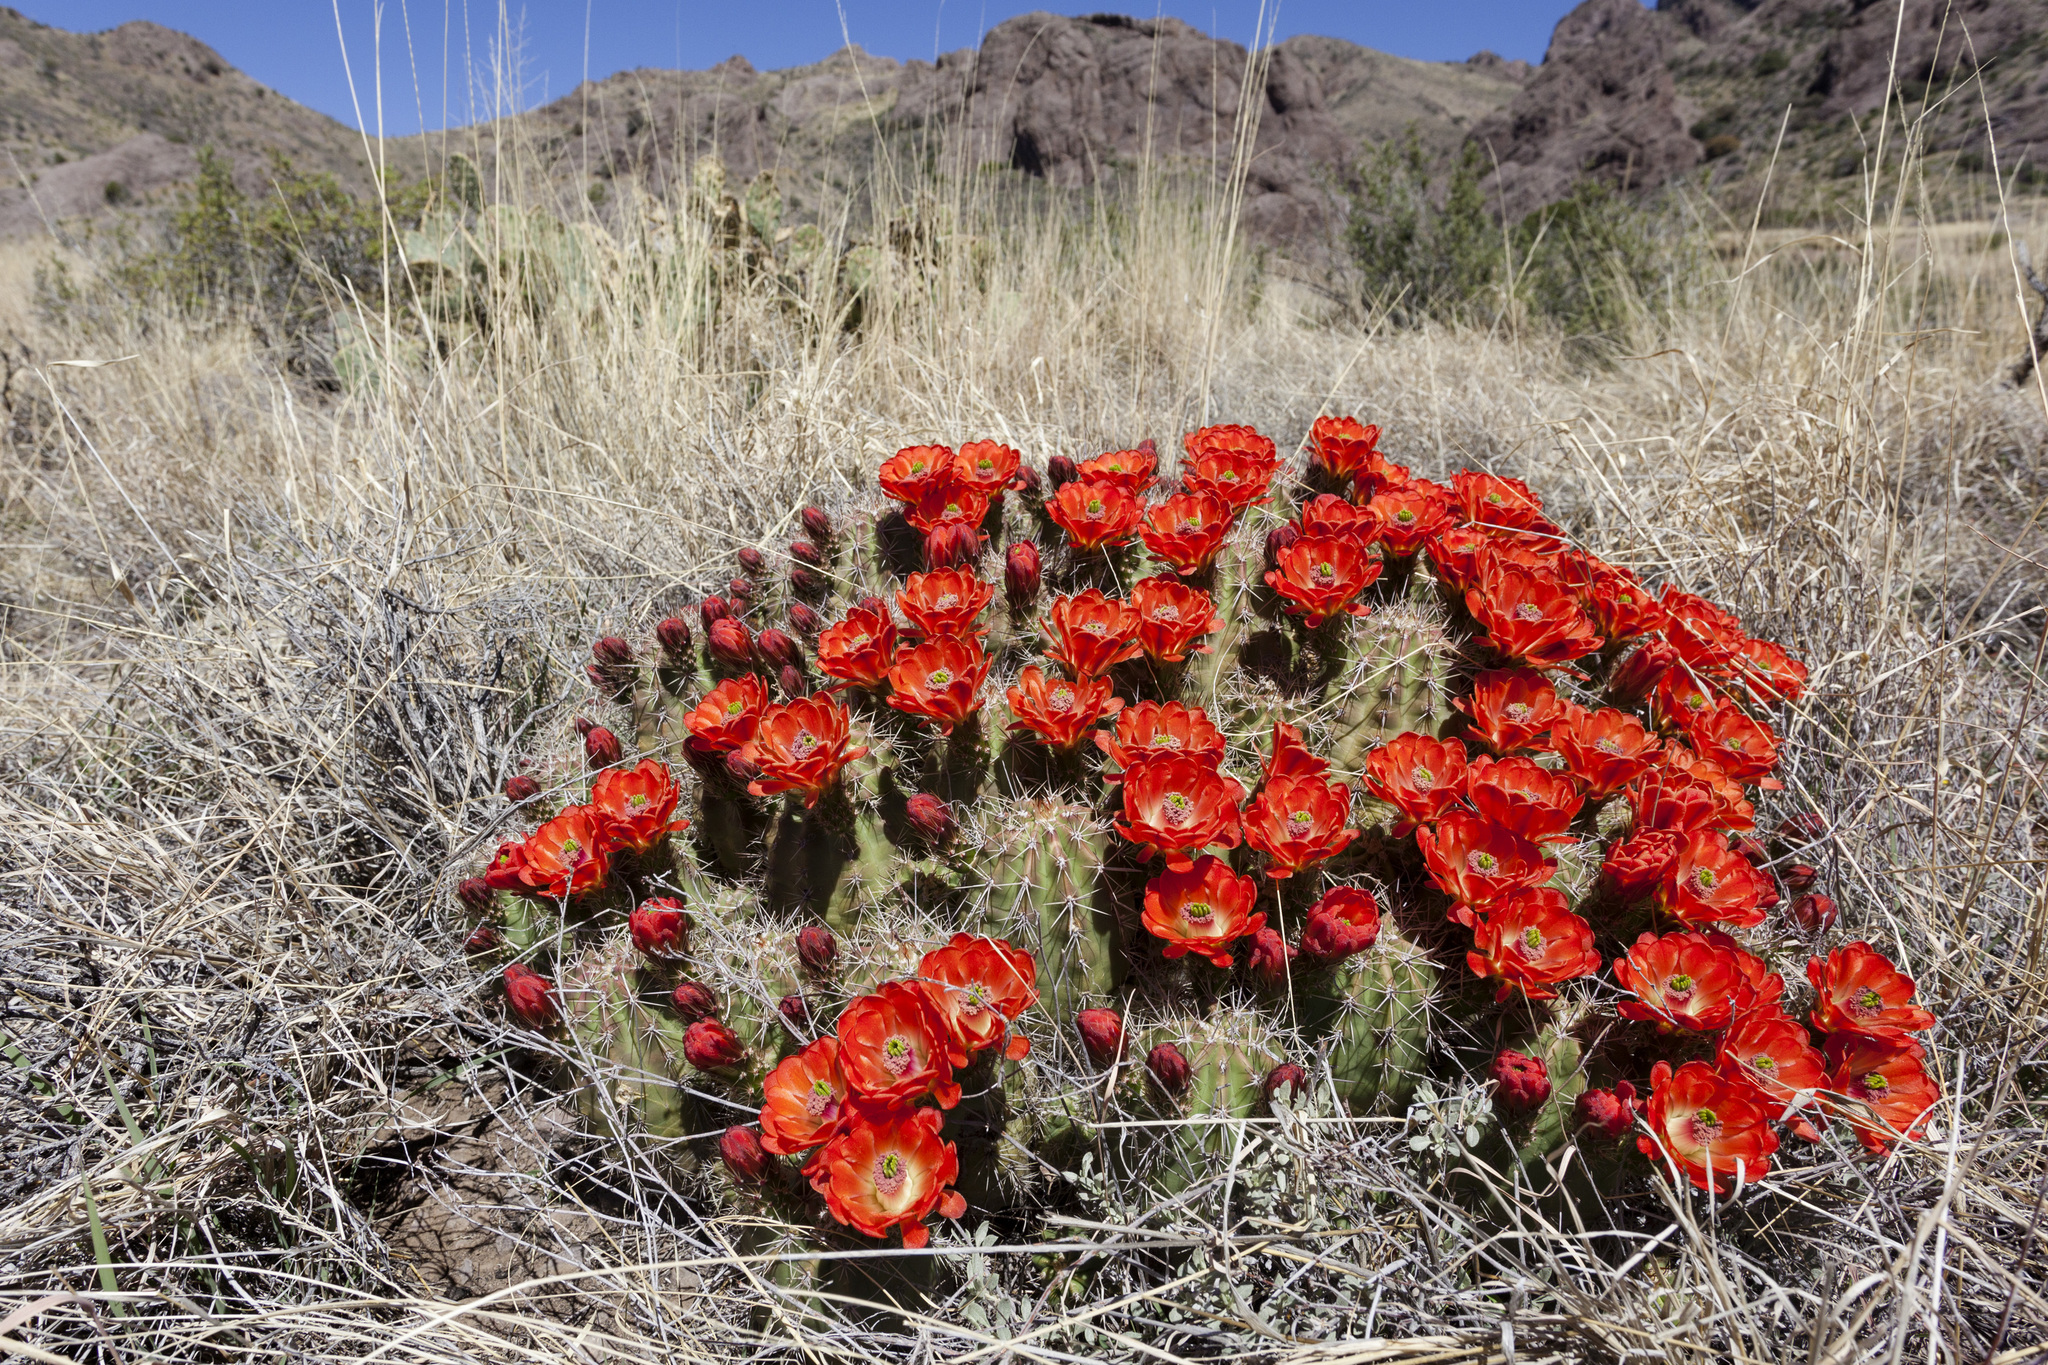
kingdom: Plantae
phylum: Tracheophyta
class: Magnoliopsida
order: Caryophyllales
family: Cactaceae
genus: Echinocereus
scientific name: Echinocereus coccineus
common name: Scarlet hedgehog cactus
